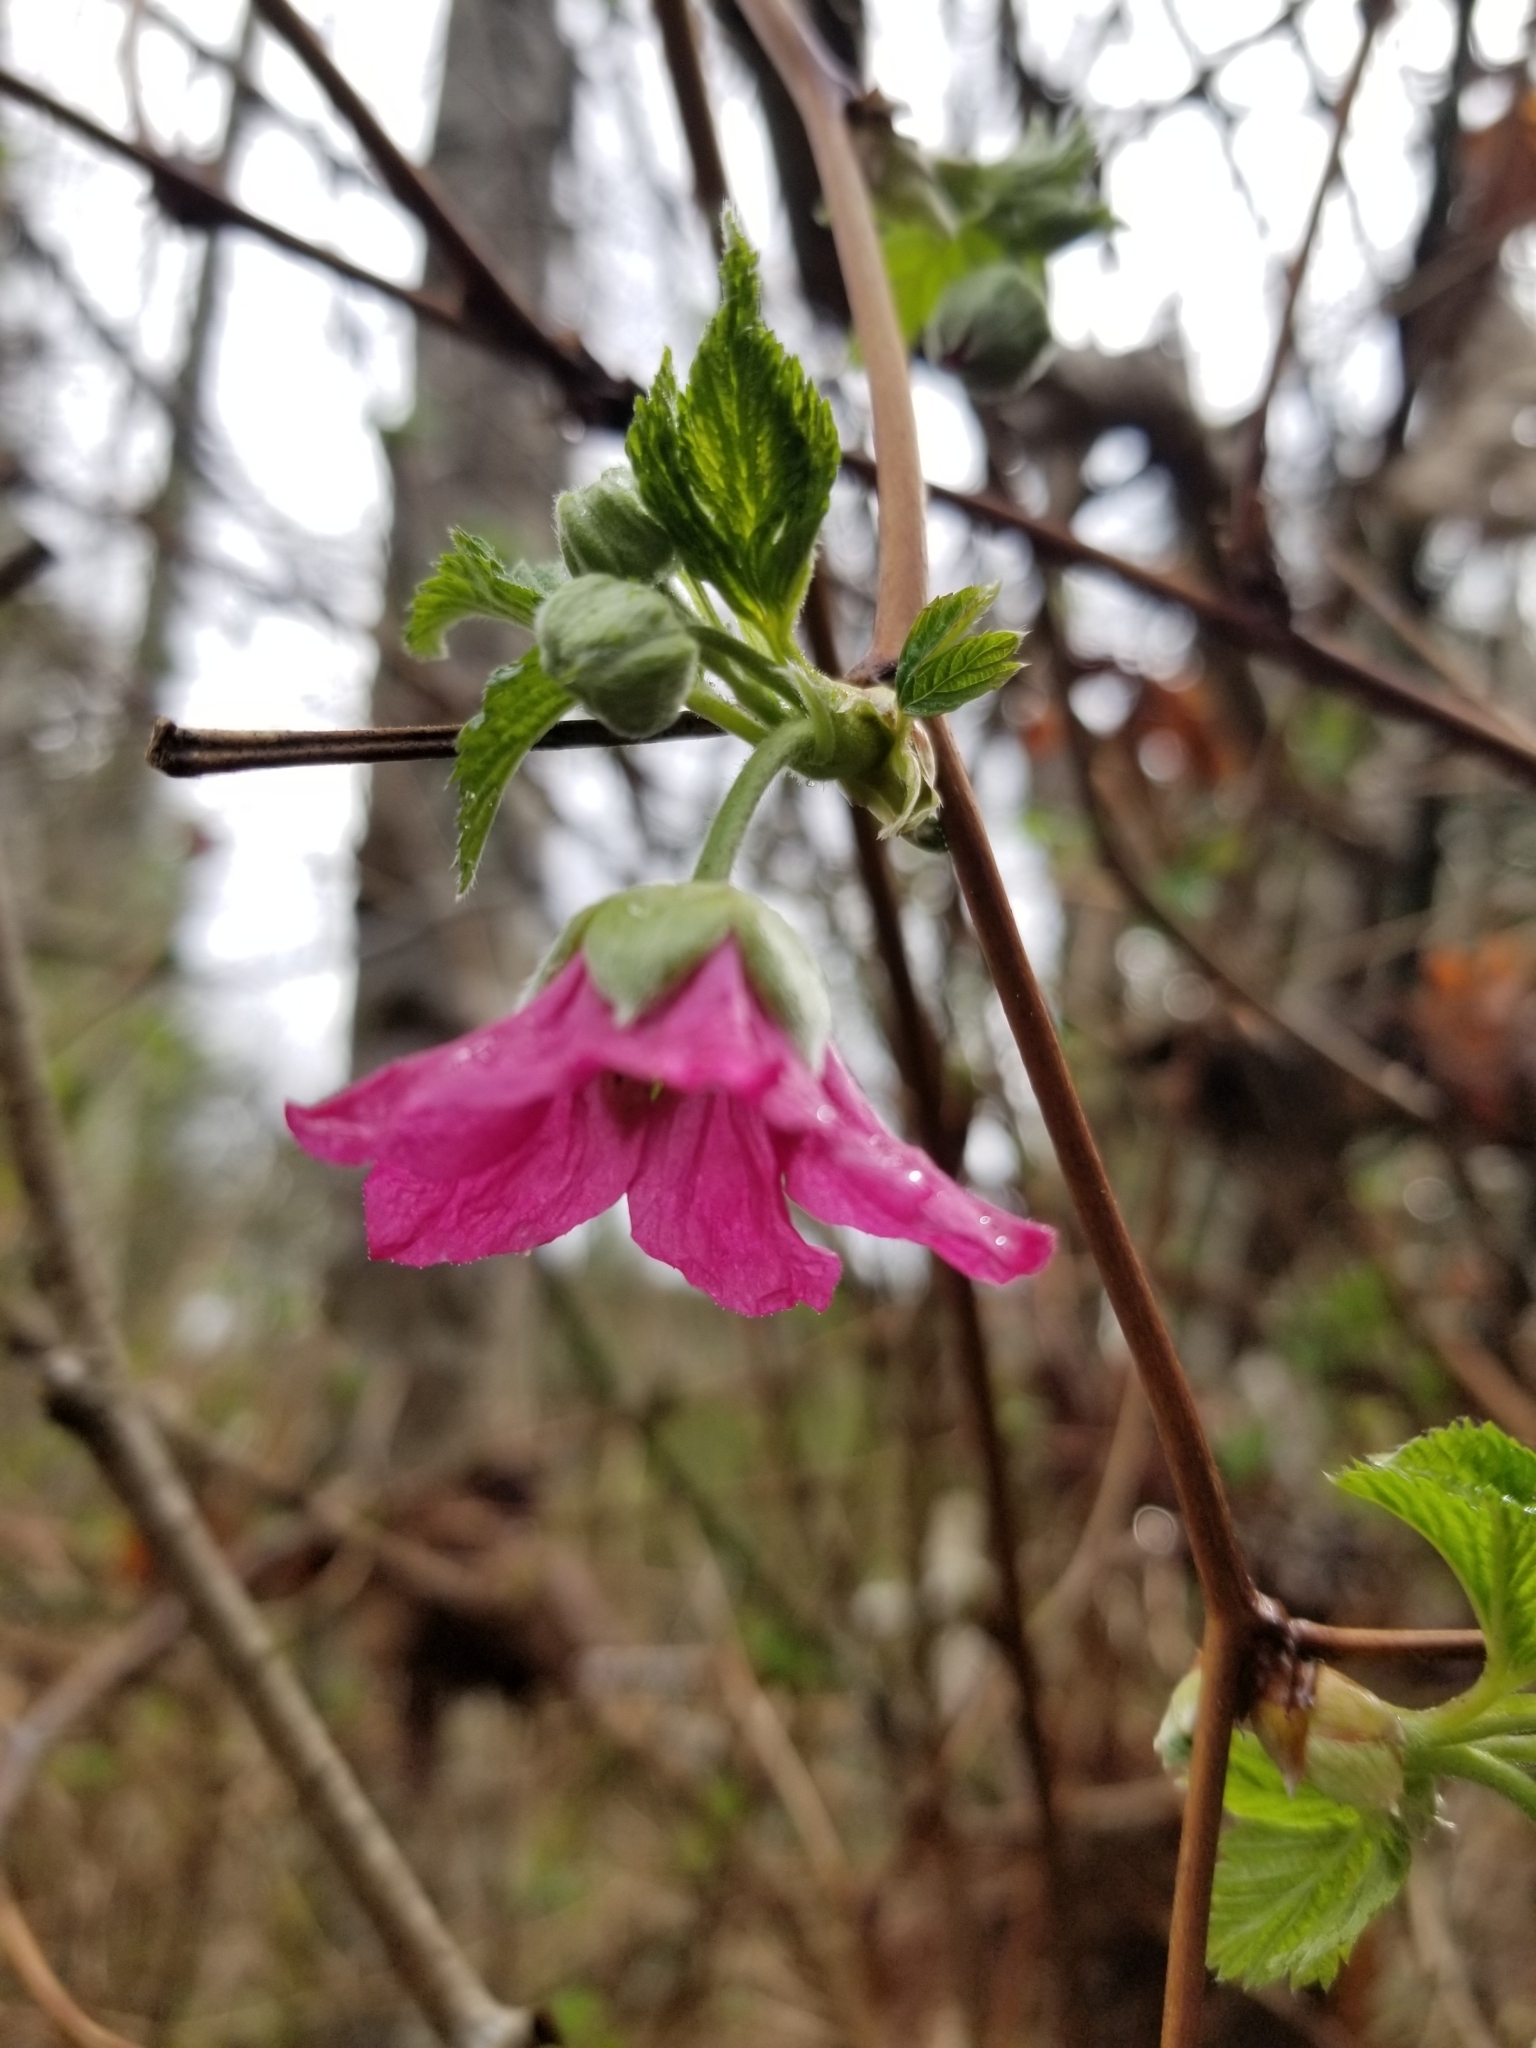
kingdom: Plantae
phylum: Tracheophyta
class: Magnoliopsida
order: Rosales
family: Rosaceae
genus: Rubus
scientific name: Rubus spectabilis
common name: Salmonberry
